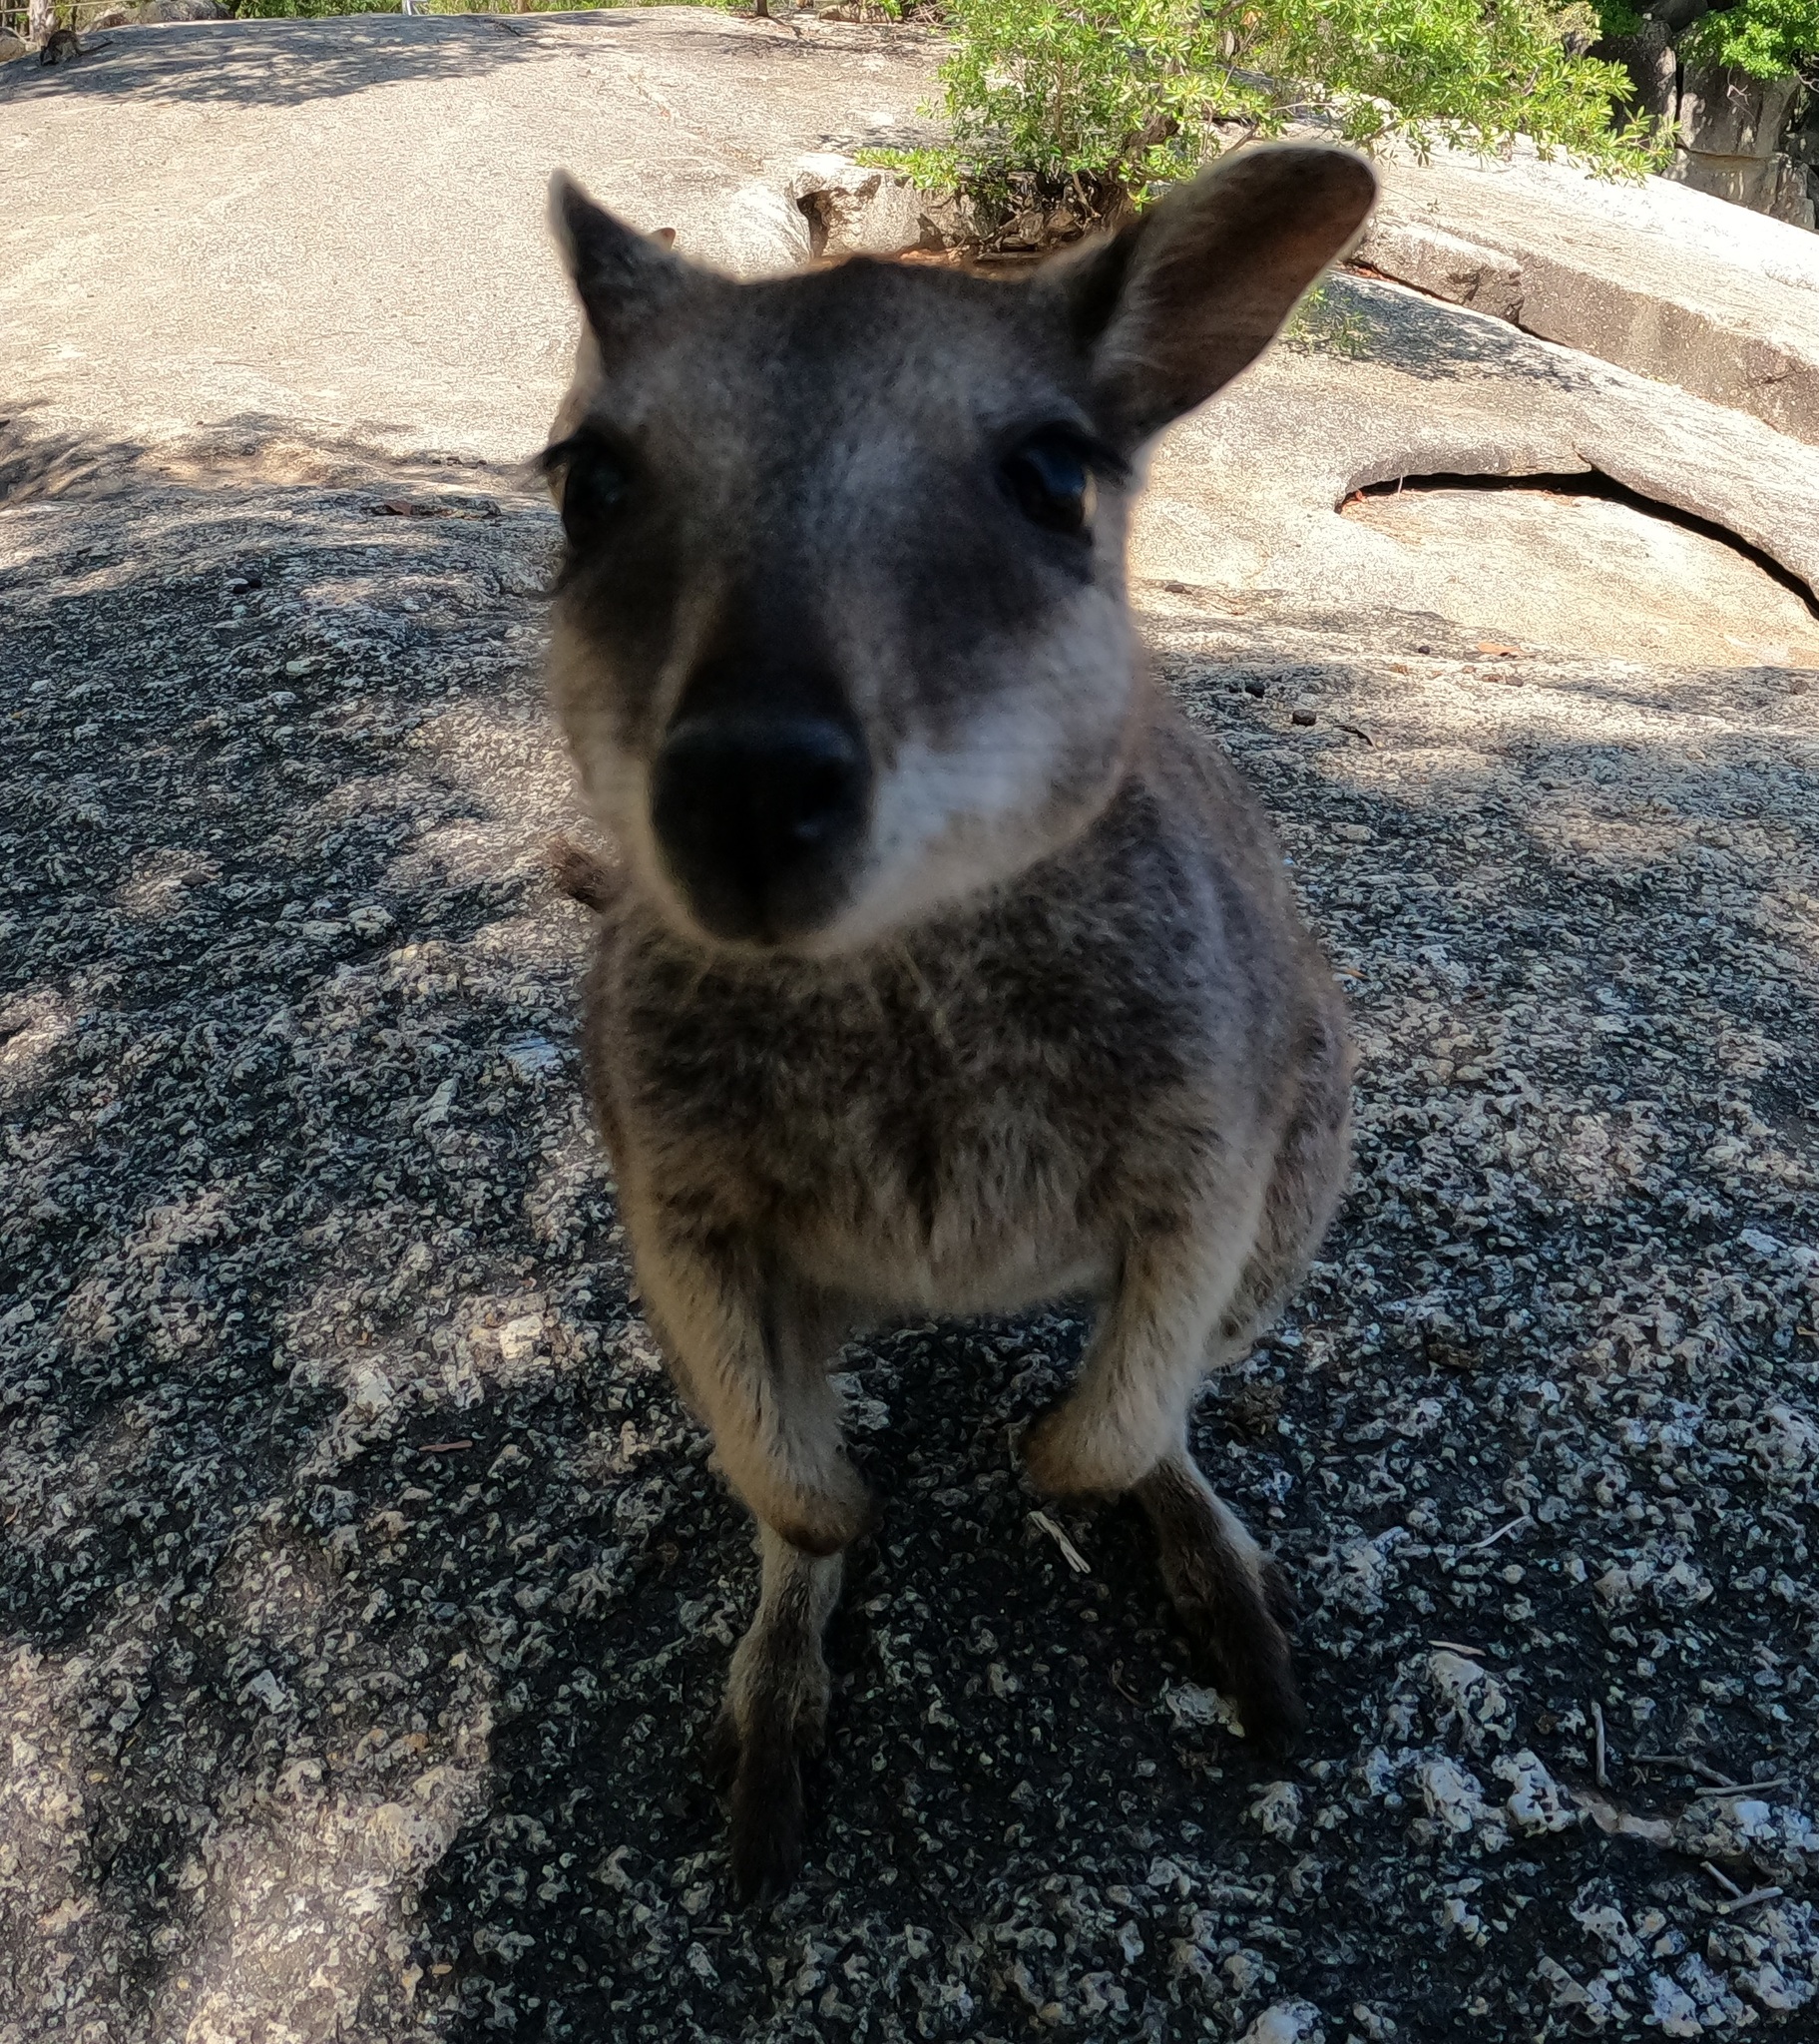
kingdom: Animalia
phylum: Chordata
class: Mammalia
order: Diprotodontia
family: Macropodidae
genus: Petrogale
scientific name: Petrogale mareeba
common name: Mareeba rock-wallaby
